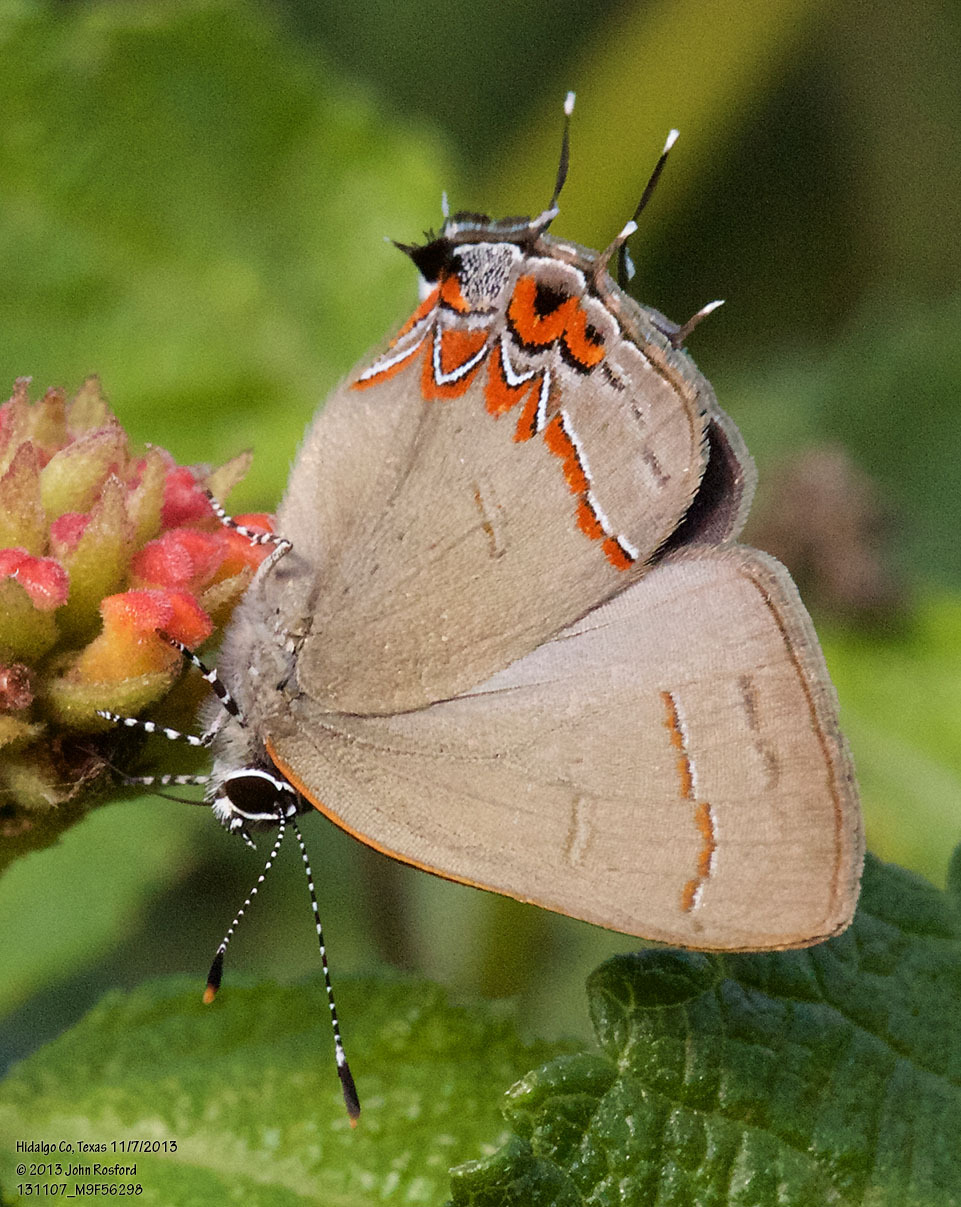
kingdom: Animalia
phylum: Arthropoda
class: Insecta
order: Lepidoptera
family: Lycaenidae
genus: Calycopis
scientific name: Calycopis isobeon
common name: Dusky-blue groundstreak
